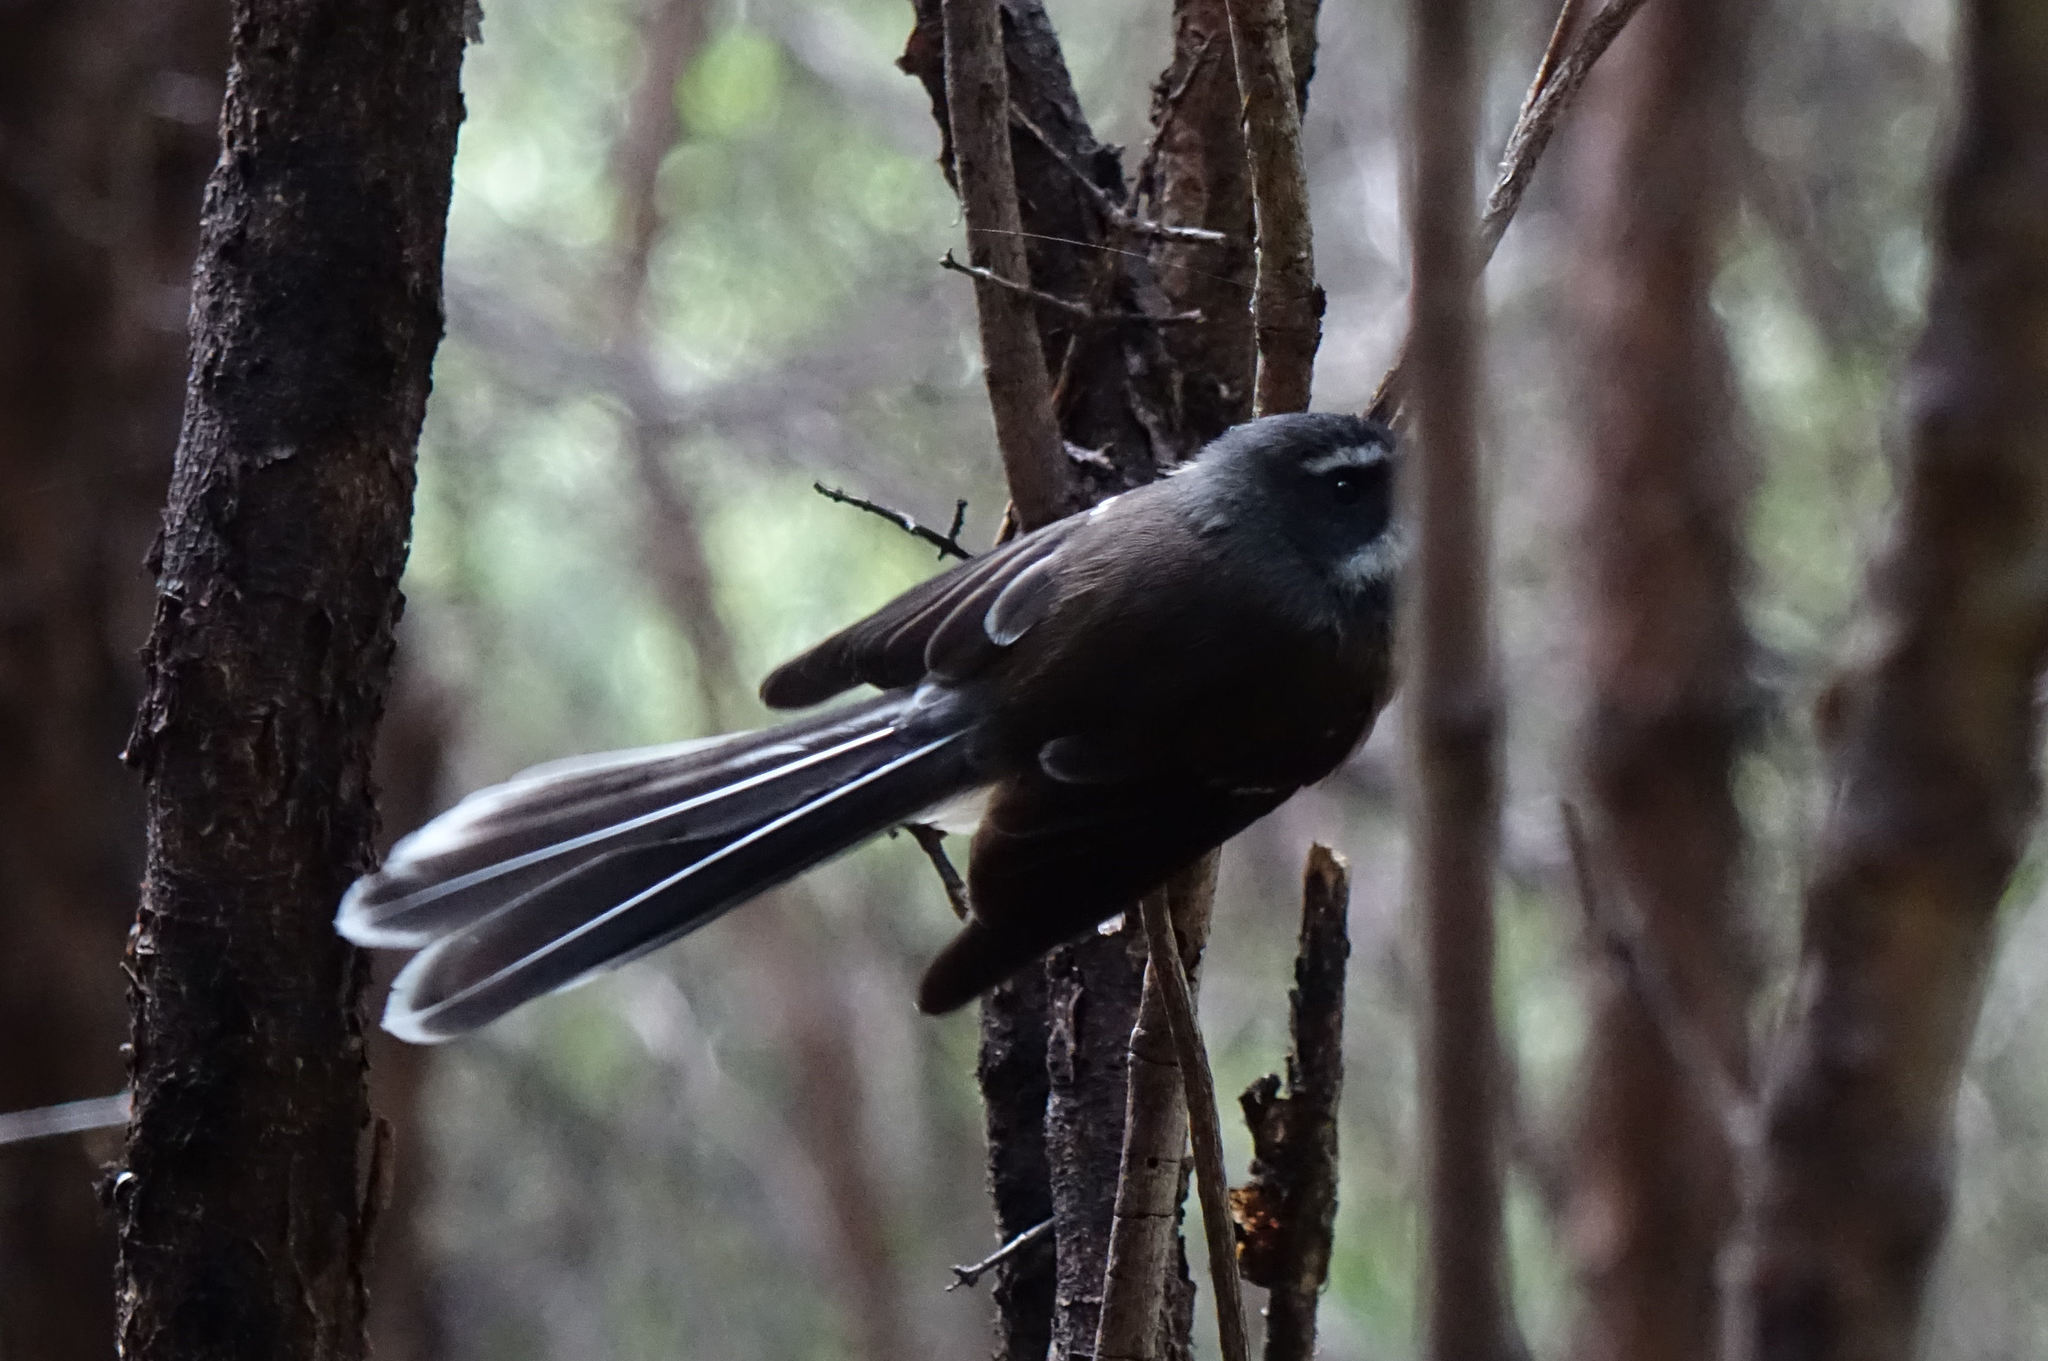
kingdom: Animalia
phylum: Chordata
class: Aves
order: Passeriformes
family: Rhipiduridae
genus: Rhipidura
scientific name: Rhipidura fuliginosa
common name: New zealand fantail
